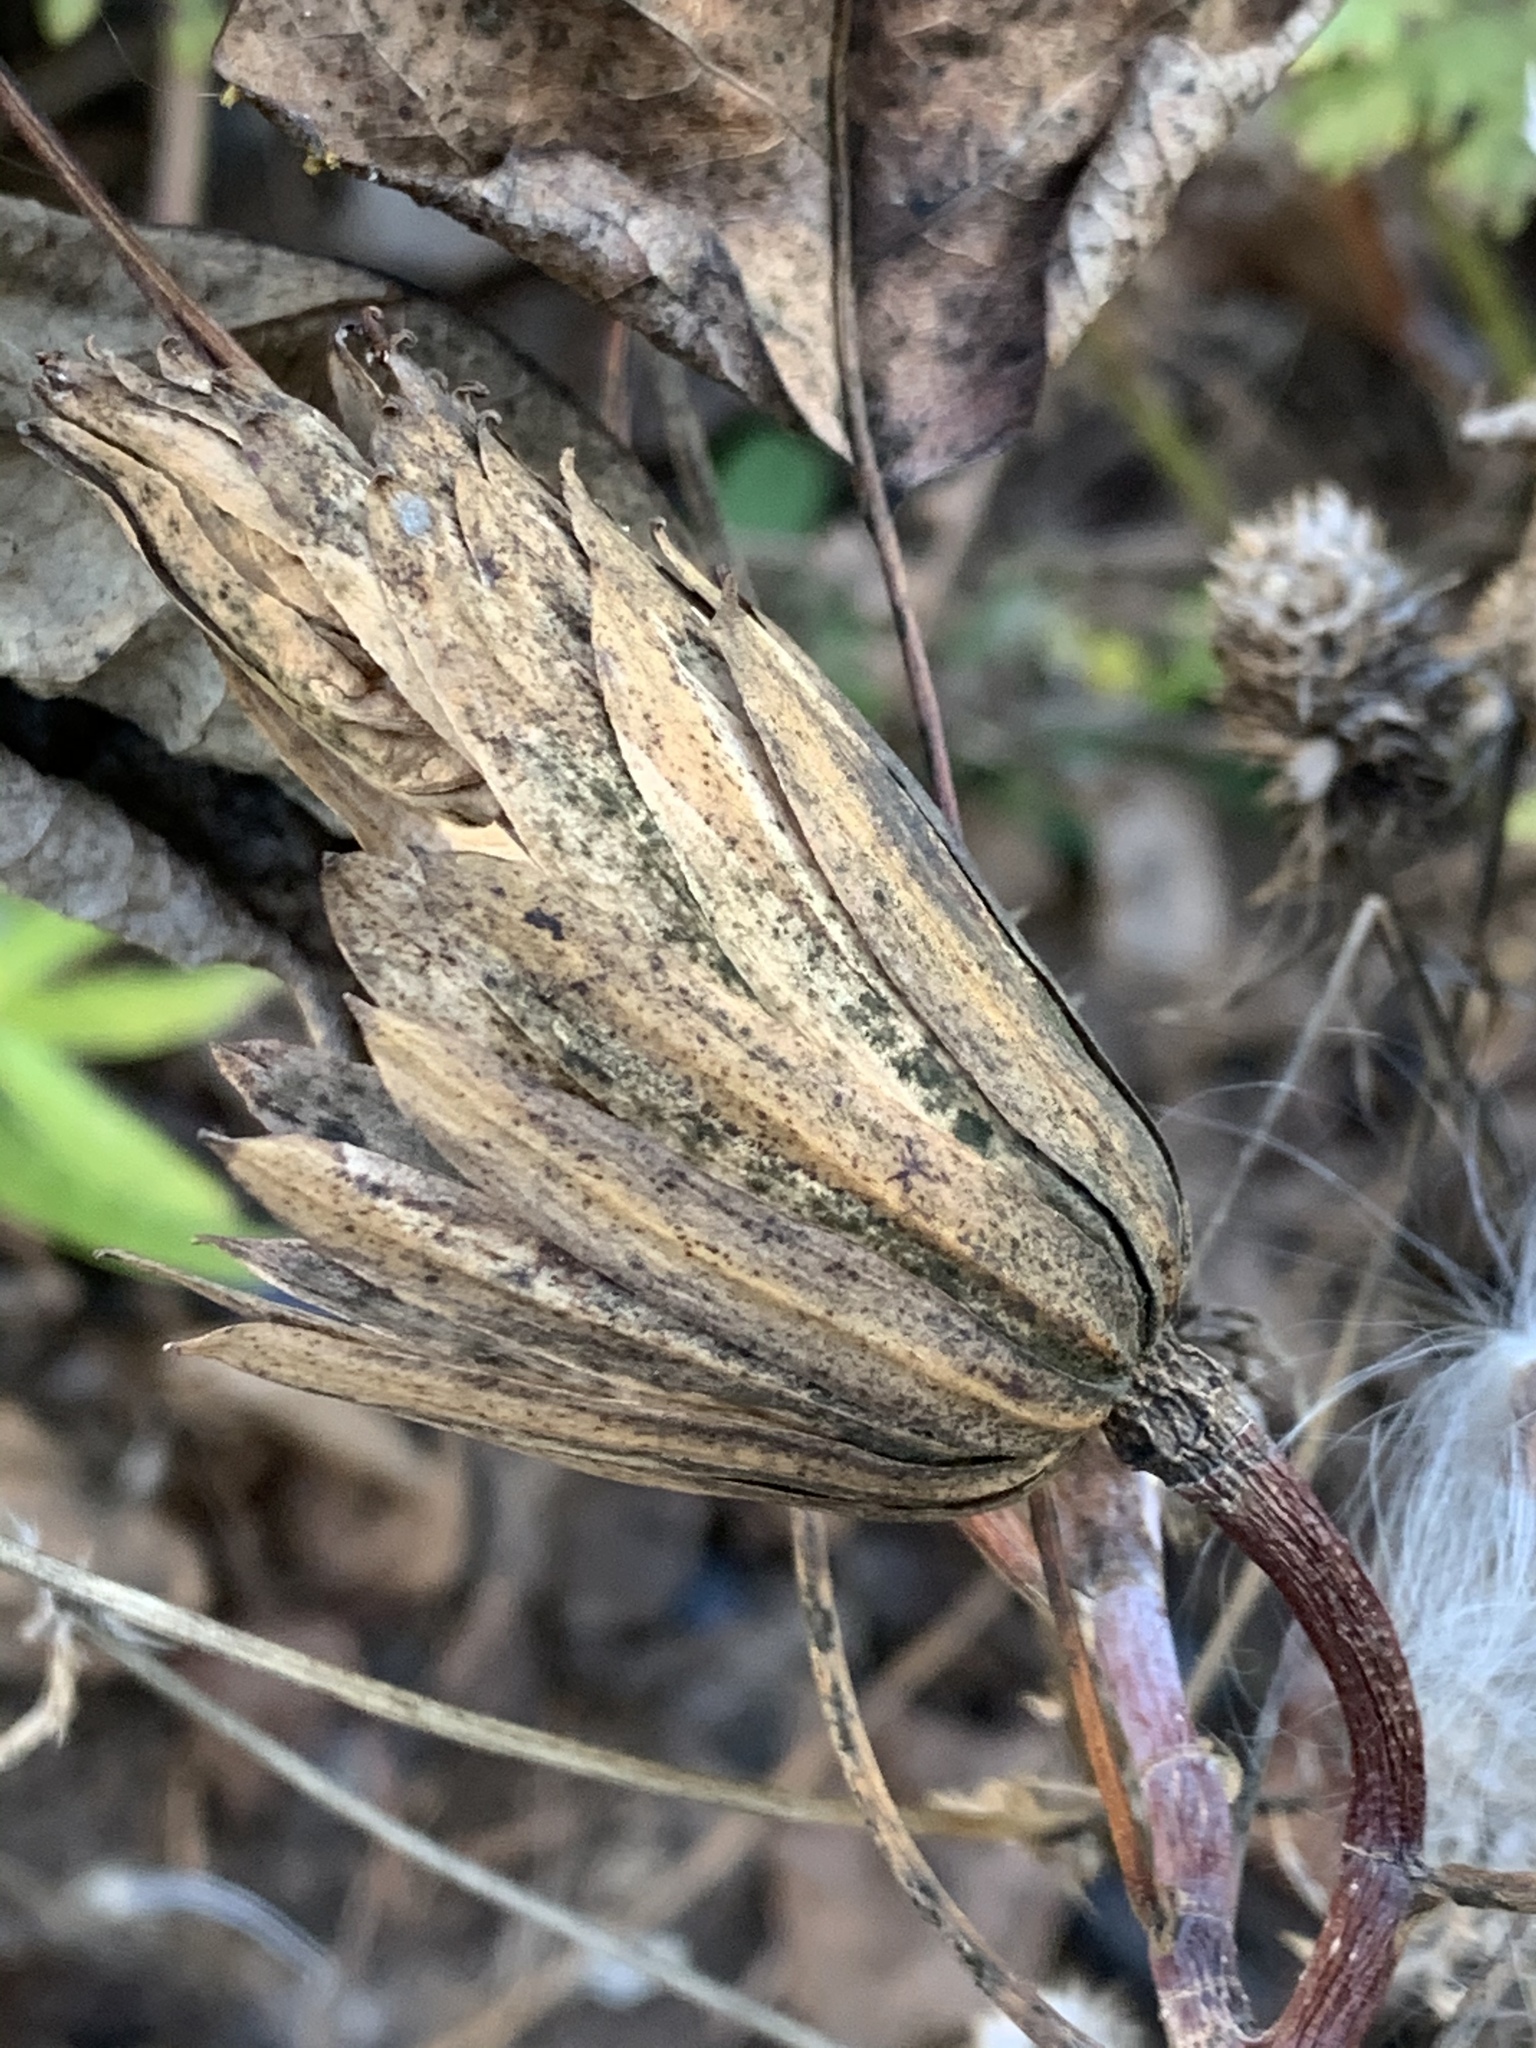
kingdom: Plantae
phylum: Tracheophyta
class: Magnoliopsida
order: Magnoliales
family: Magnoliaceae
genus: Liriodendron
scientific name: Liriodendron tulipifera
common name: Tulip tree
